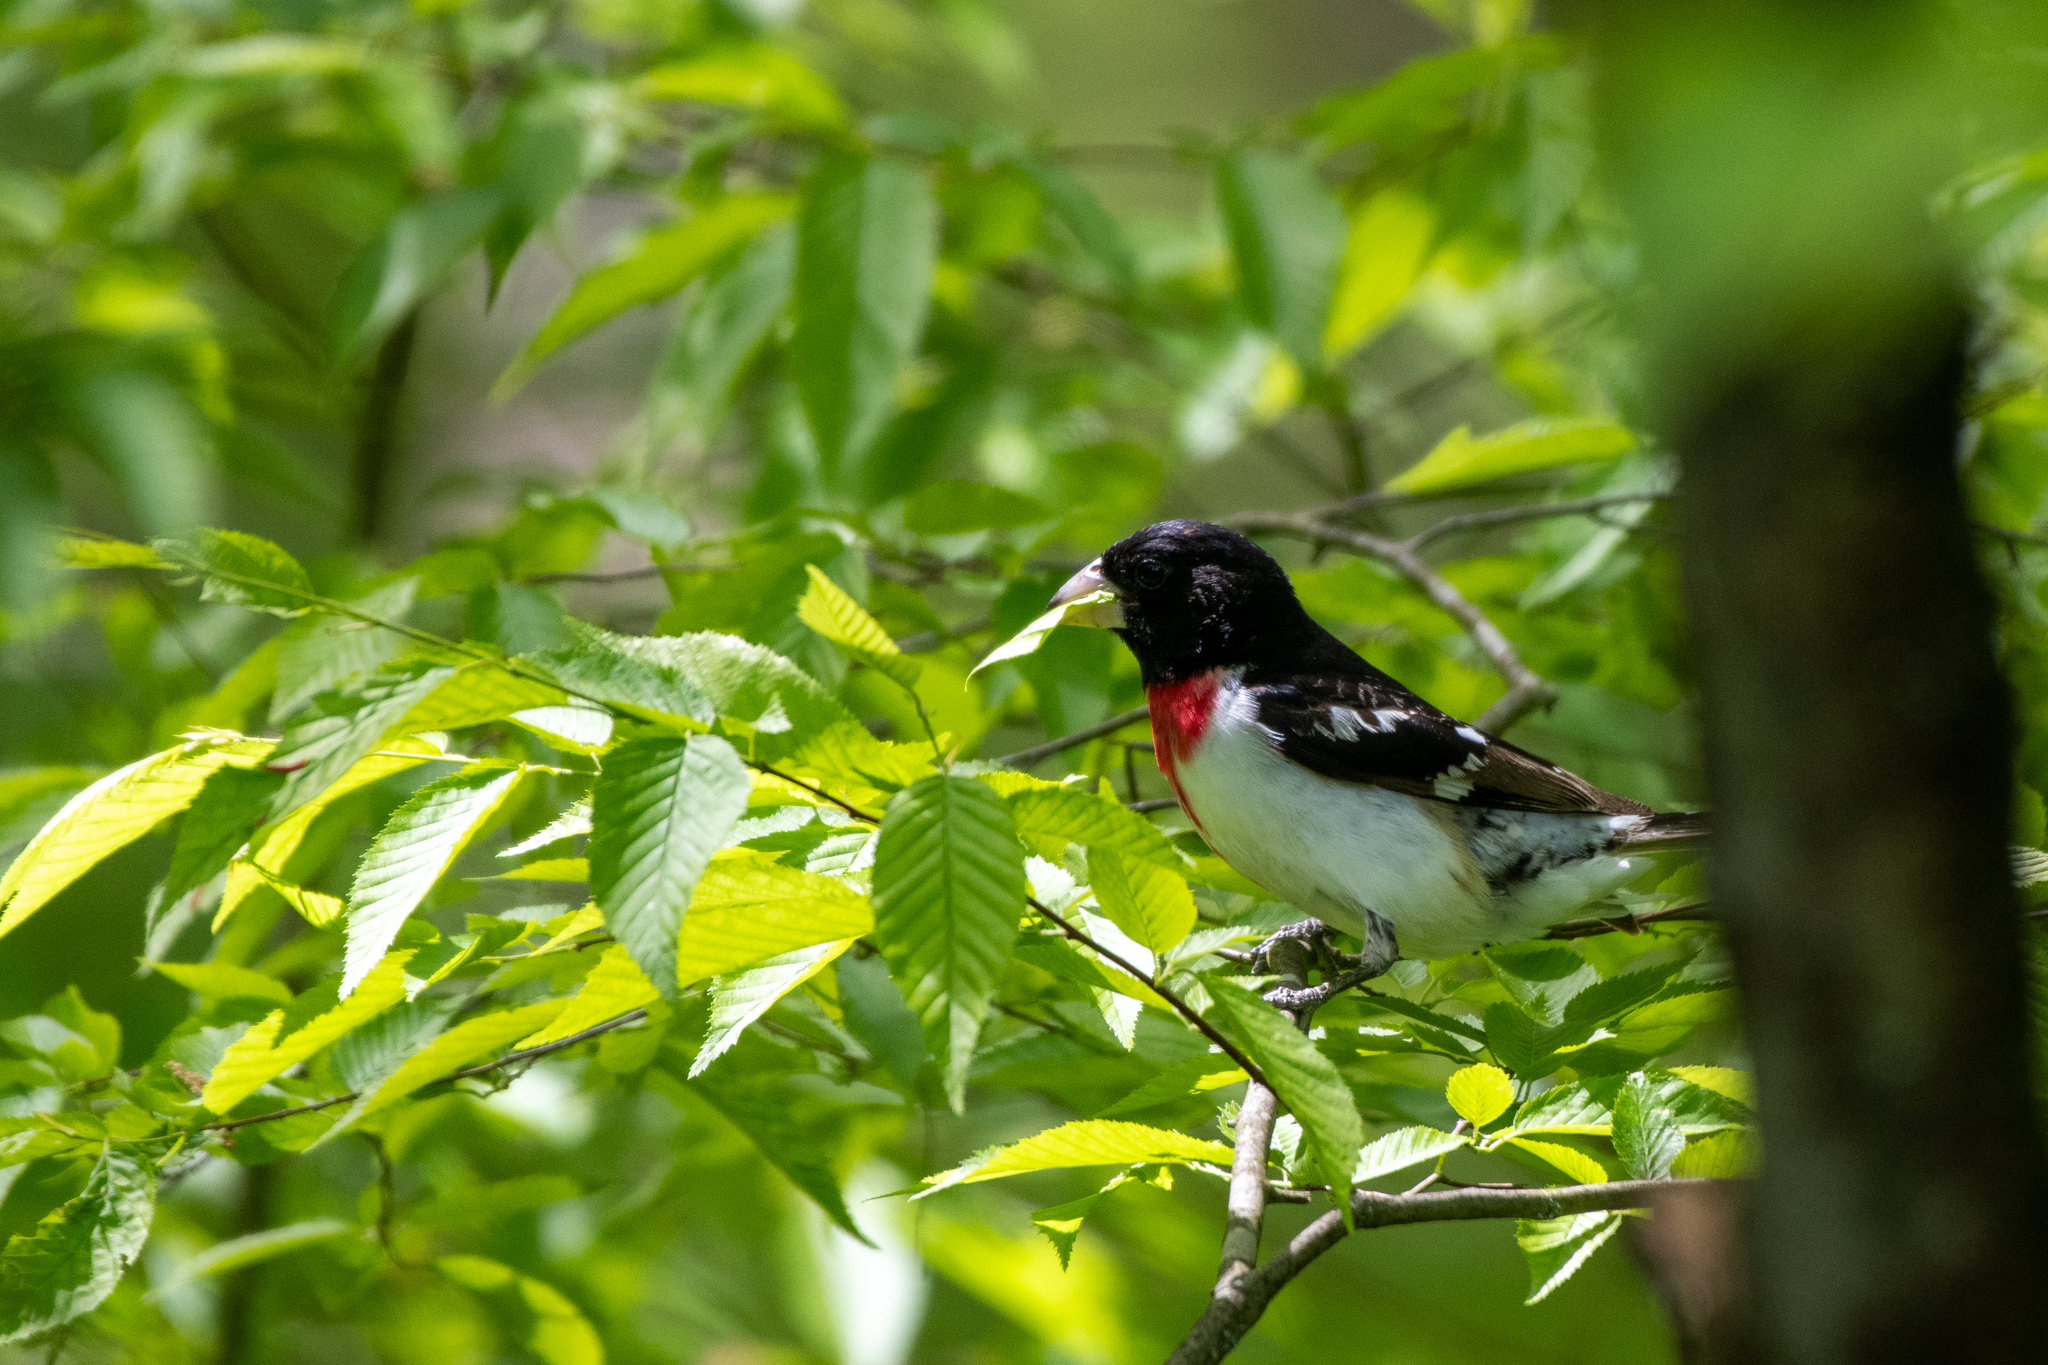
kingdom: Animalia
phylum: Chordata
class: Aves
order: Passeriformes
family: Cardinalidae
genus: Pheucticus
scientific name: Pheucticus ludovicianus
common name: Rose-breasted grosbeak
